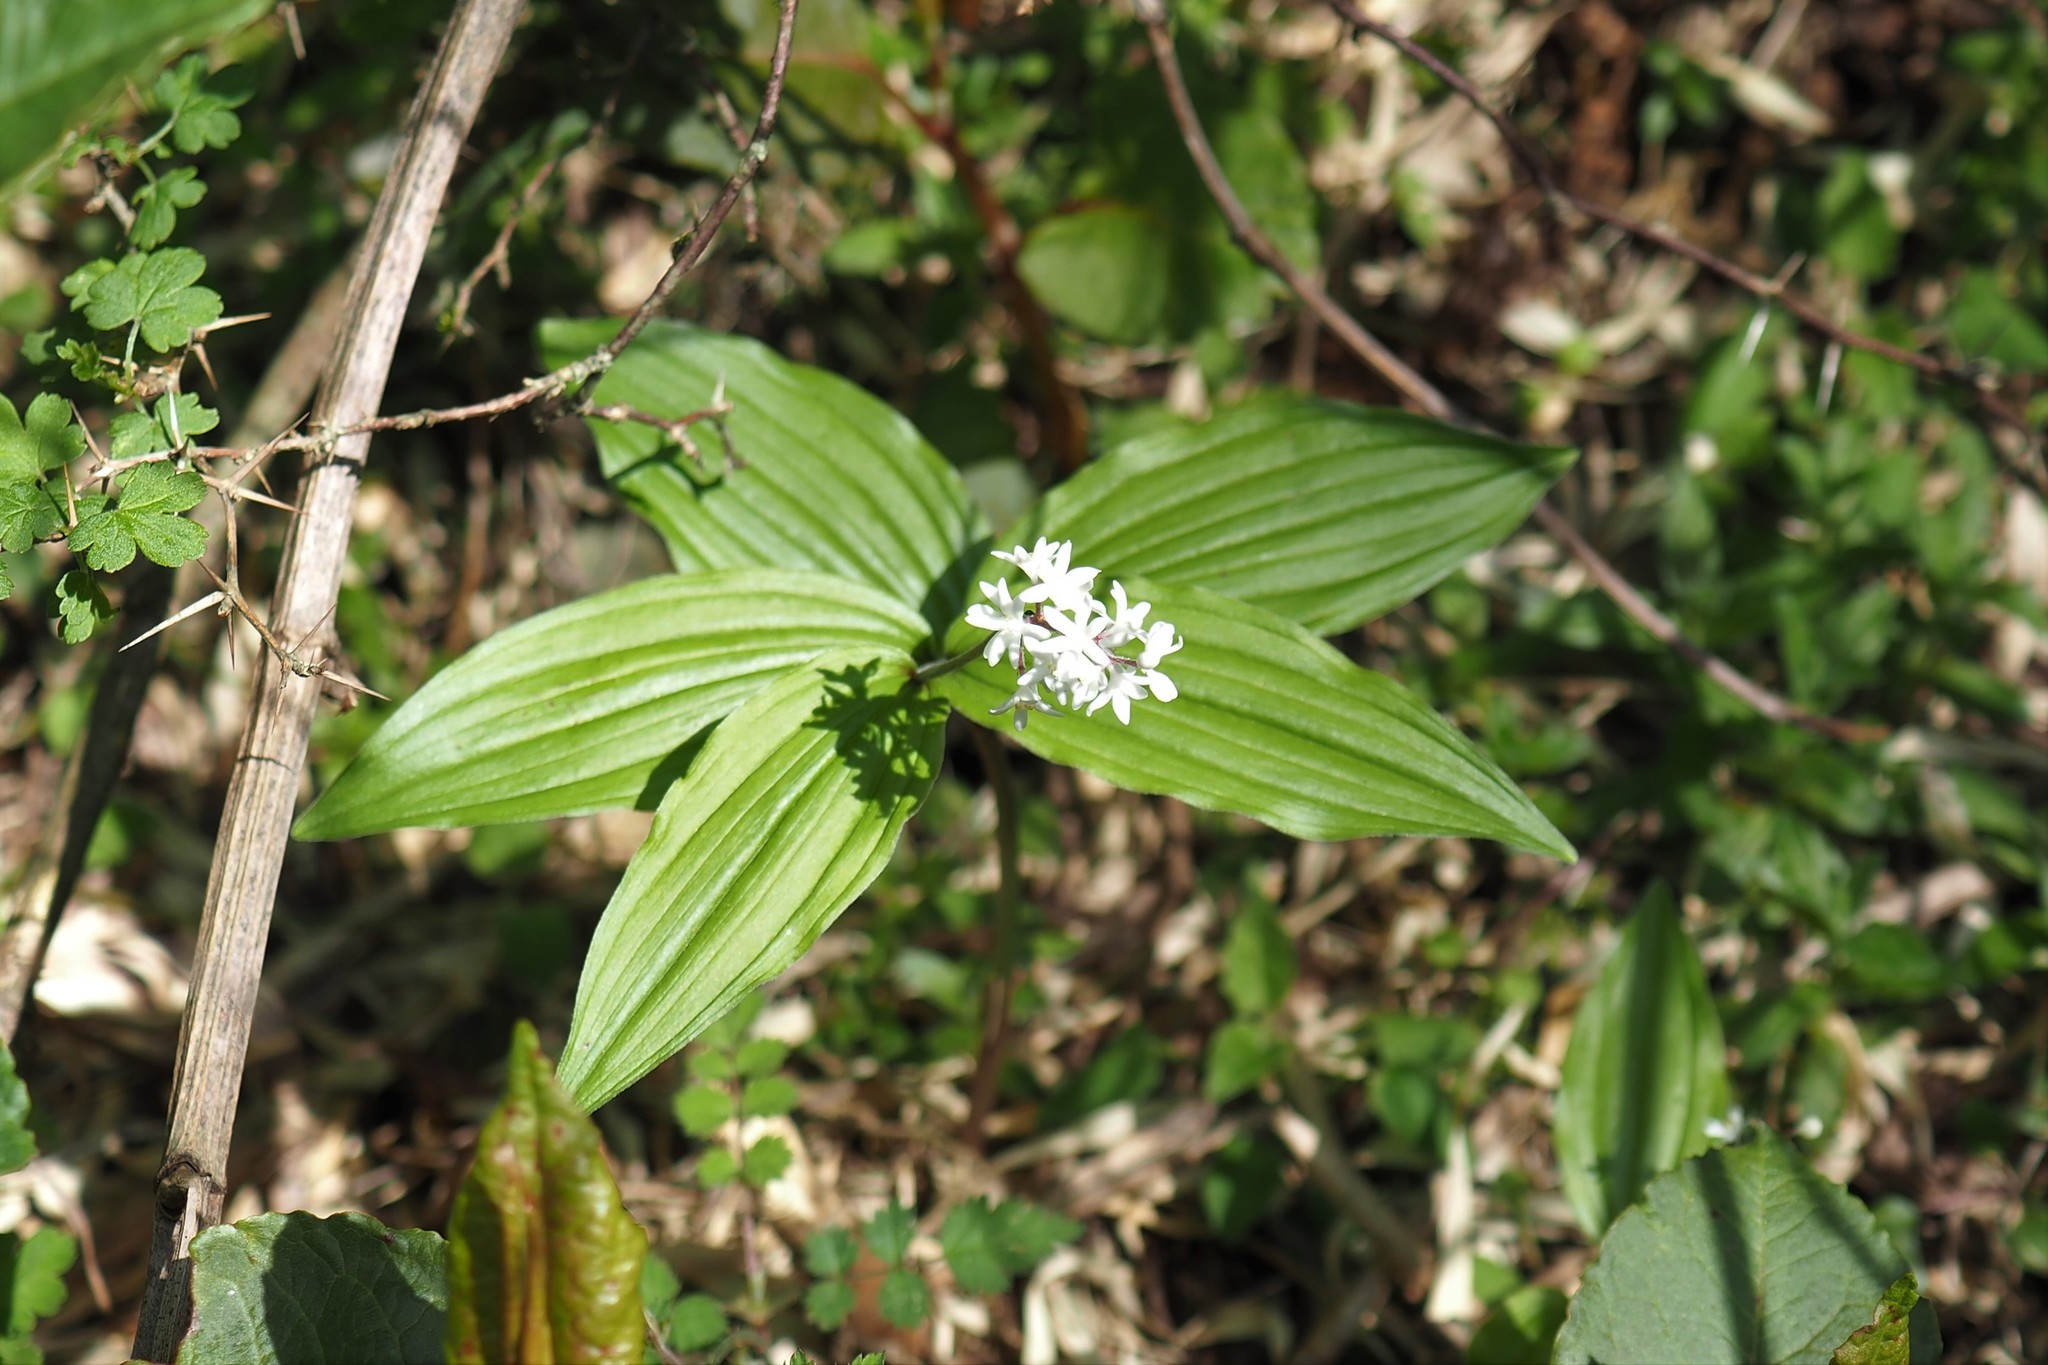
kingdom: Plantae
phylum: Tracheophyta
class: Liliopsida
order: Asparagales
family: Asparagaceae
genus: Maianthemum
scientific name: Maianthemum formosanum
